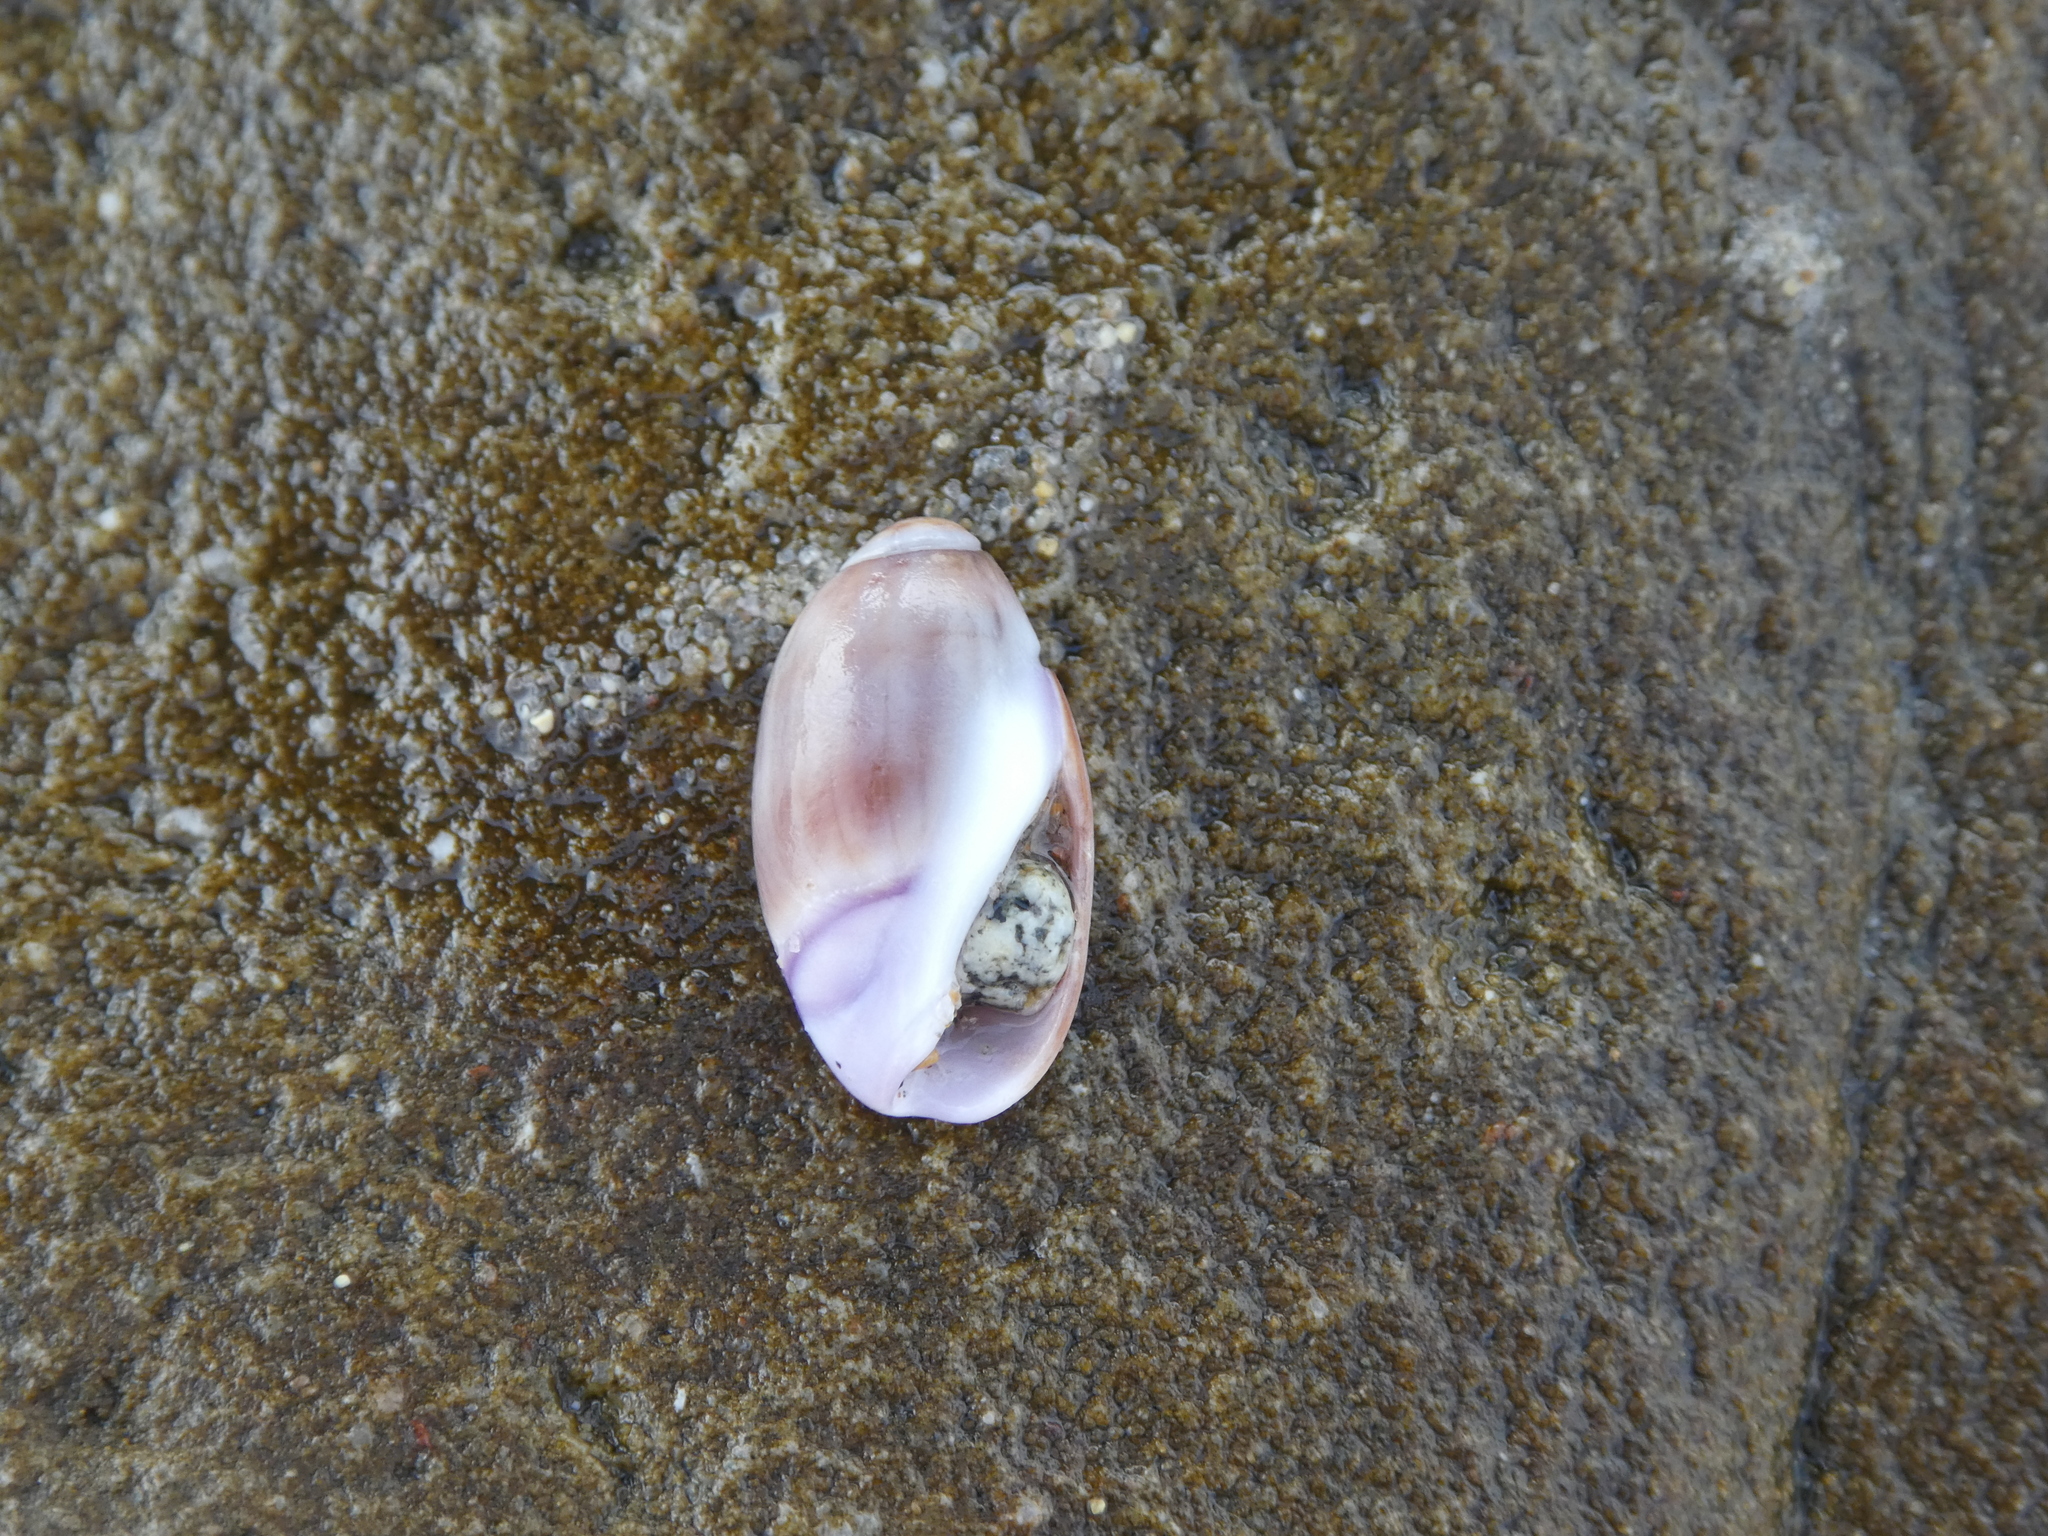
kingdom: Animalia
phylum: Mollusca
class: Gastropoda
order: Neogastropoda
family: Olividae
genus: Callianax
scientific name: Callianax biplicata
